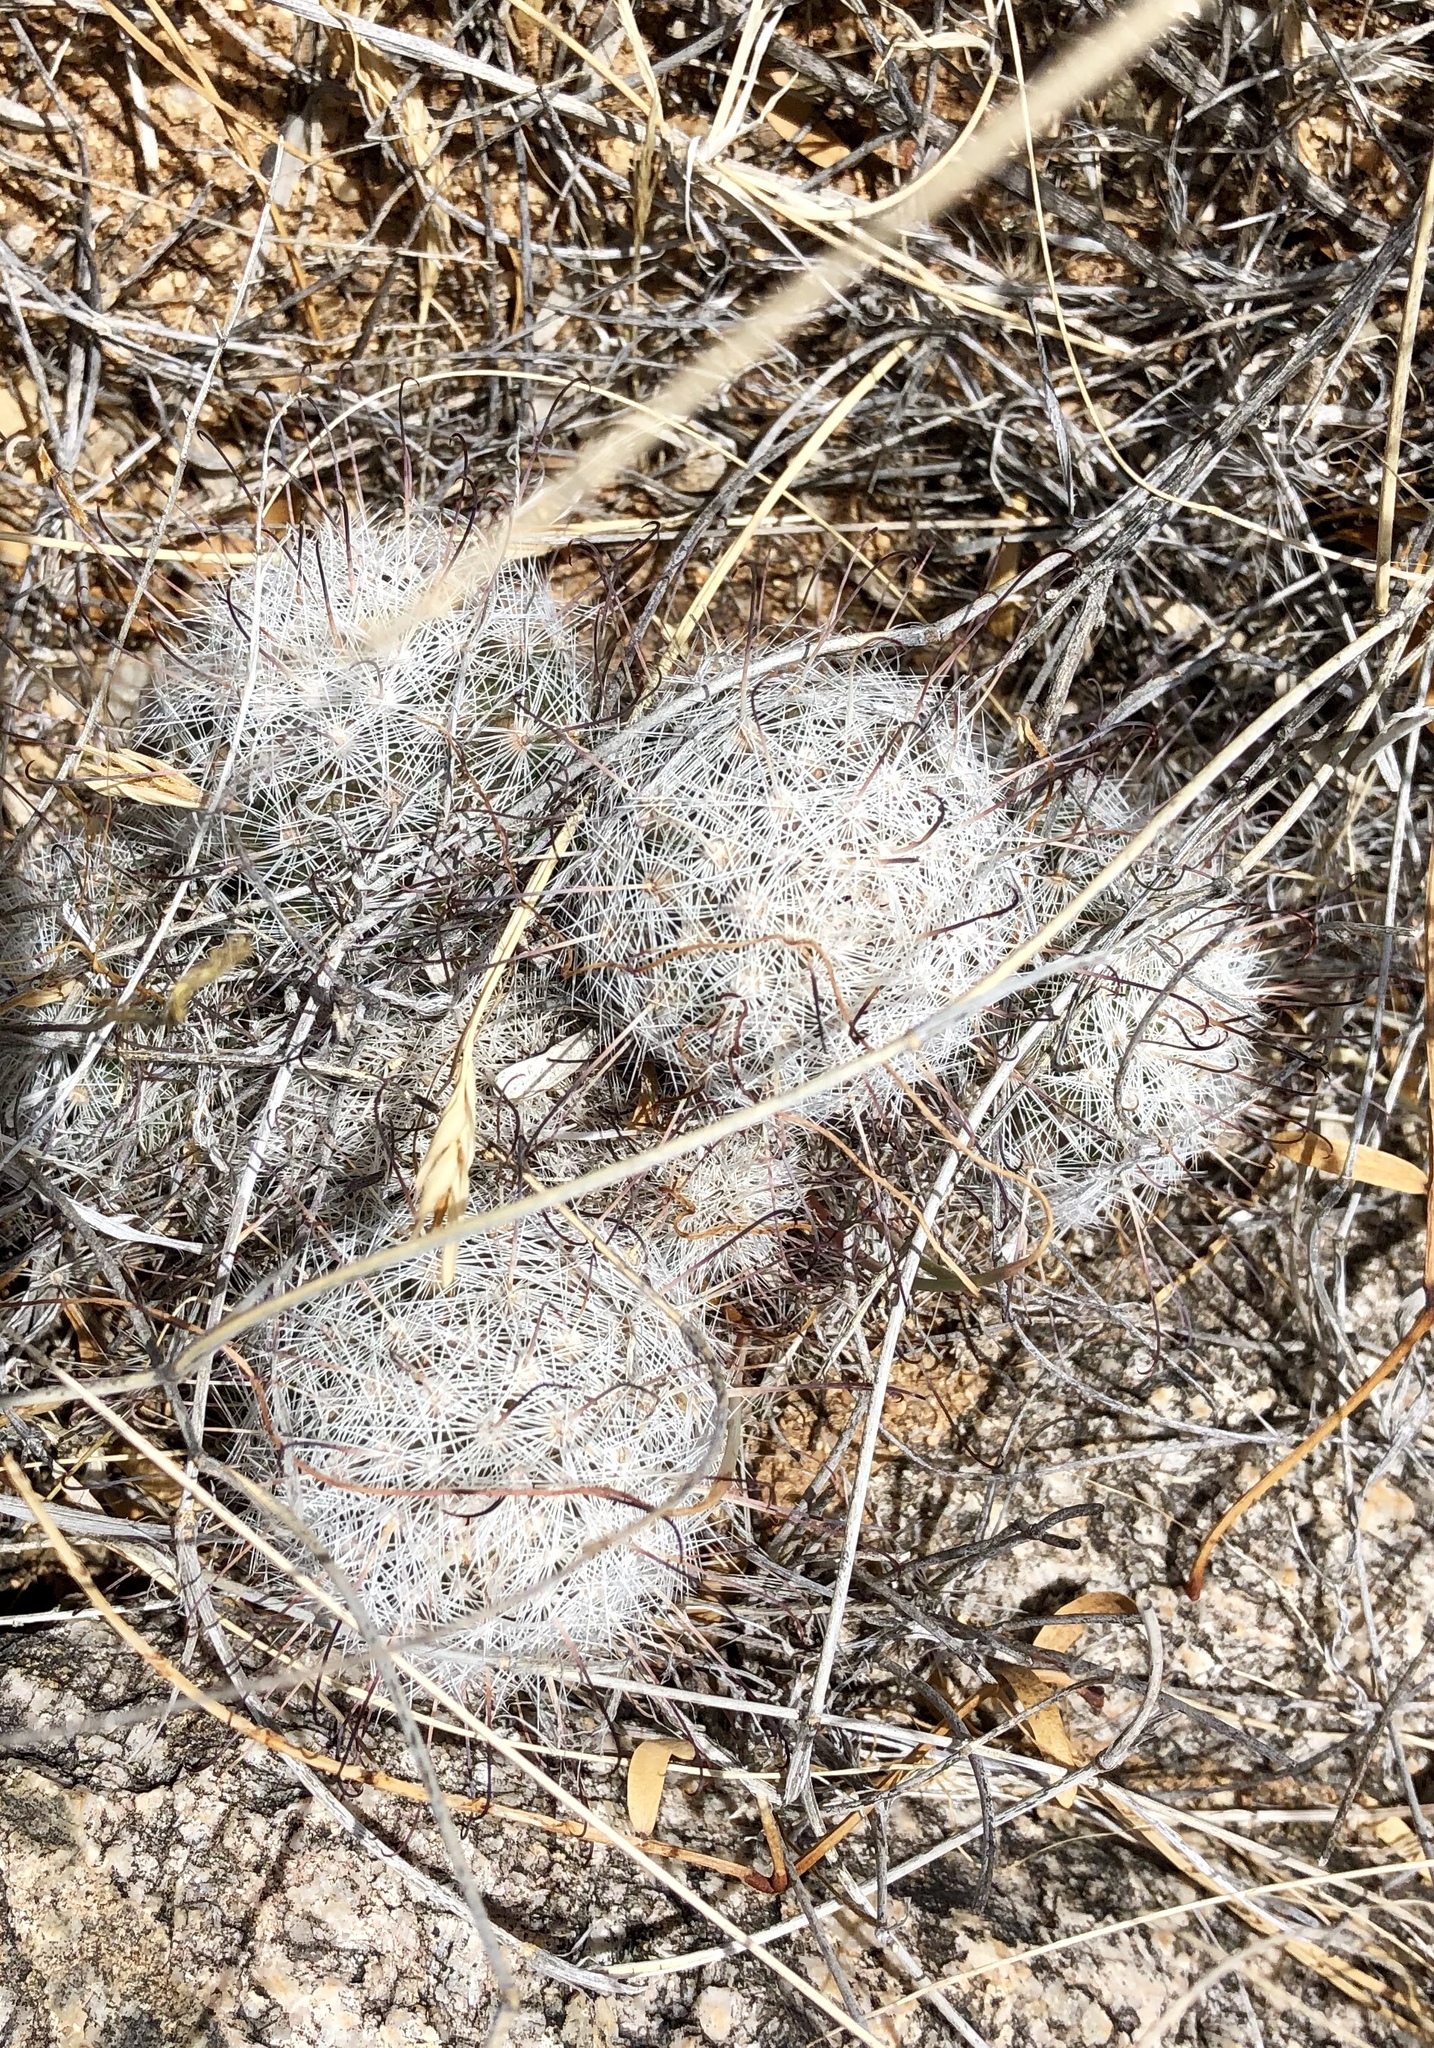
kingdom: Plantae
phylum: Tracheophyta
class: Magnoliopsida
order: Caryophyllales
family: Cactaceae
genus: Cochemiea
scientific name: Cochemiea grahamii
